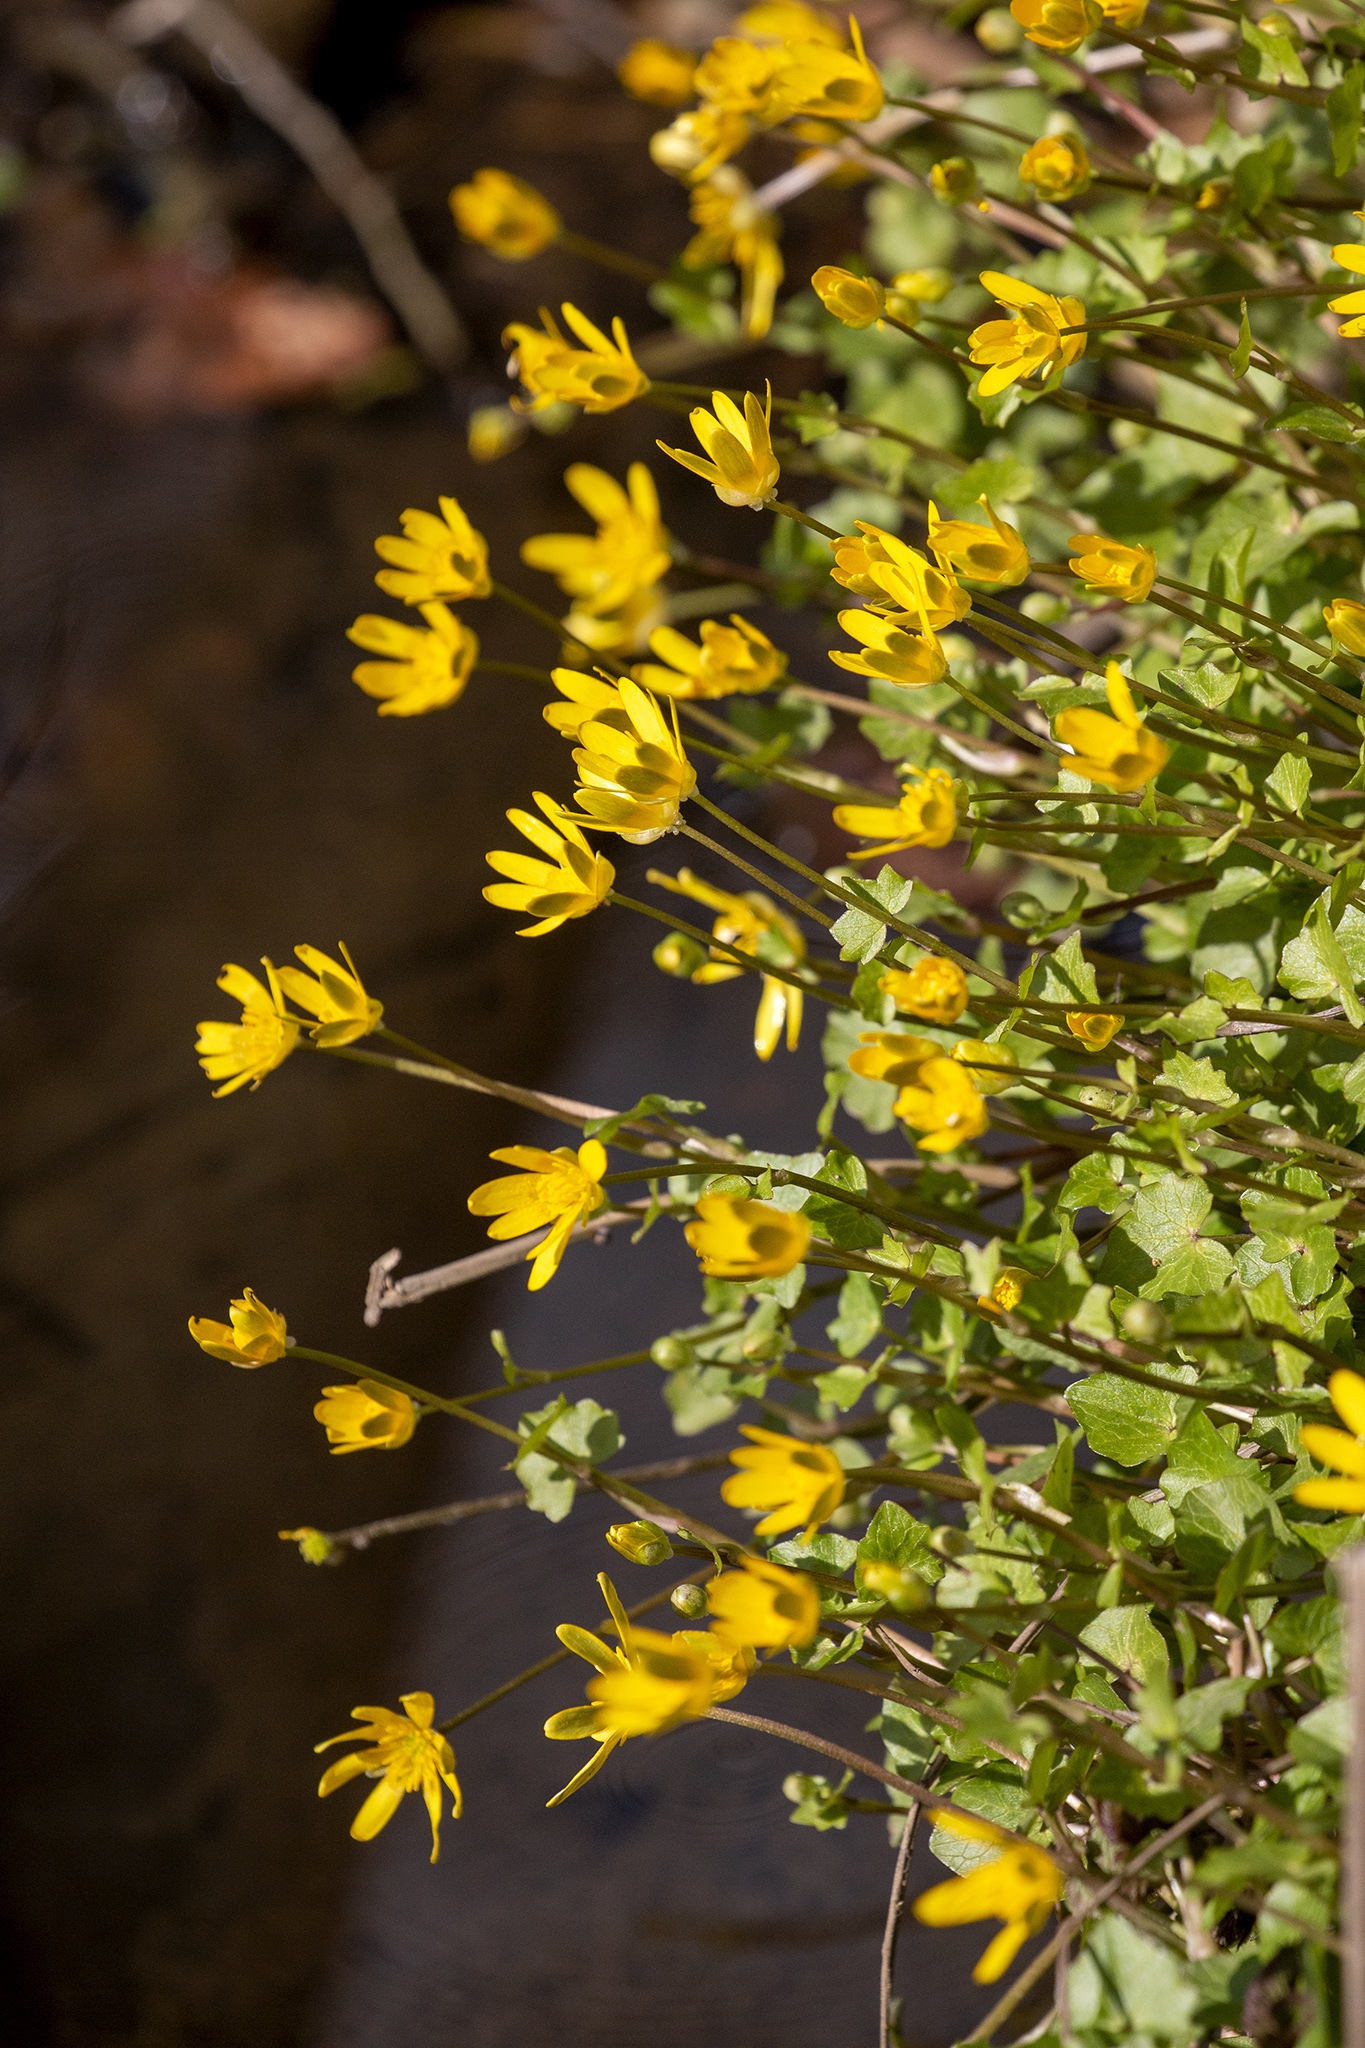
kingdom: Plantae
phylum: Tracheophyta
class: Magnoliopsida
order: Ranunculales
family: Ranunculaceae
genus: Ficaria
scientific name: Ficaria verna
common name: Lesser celandine
